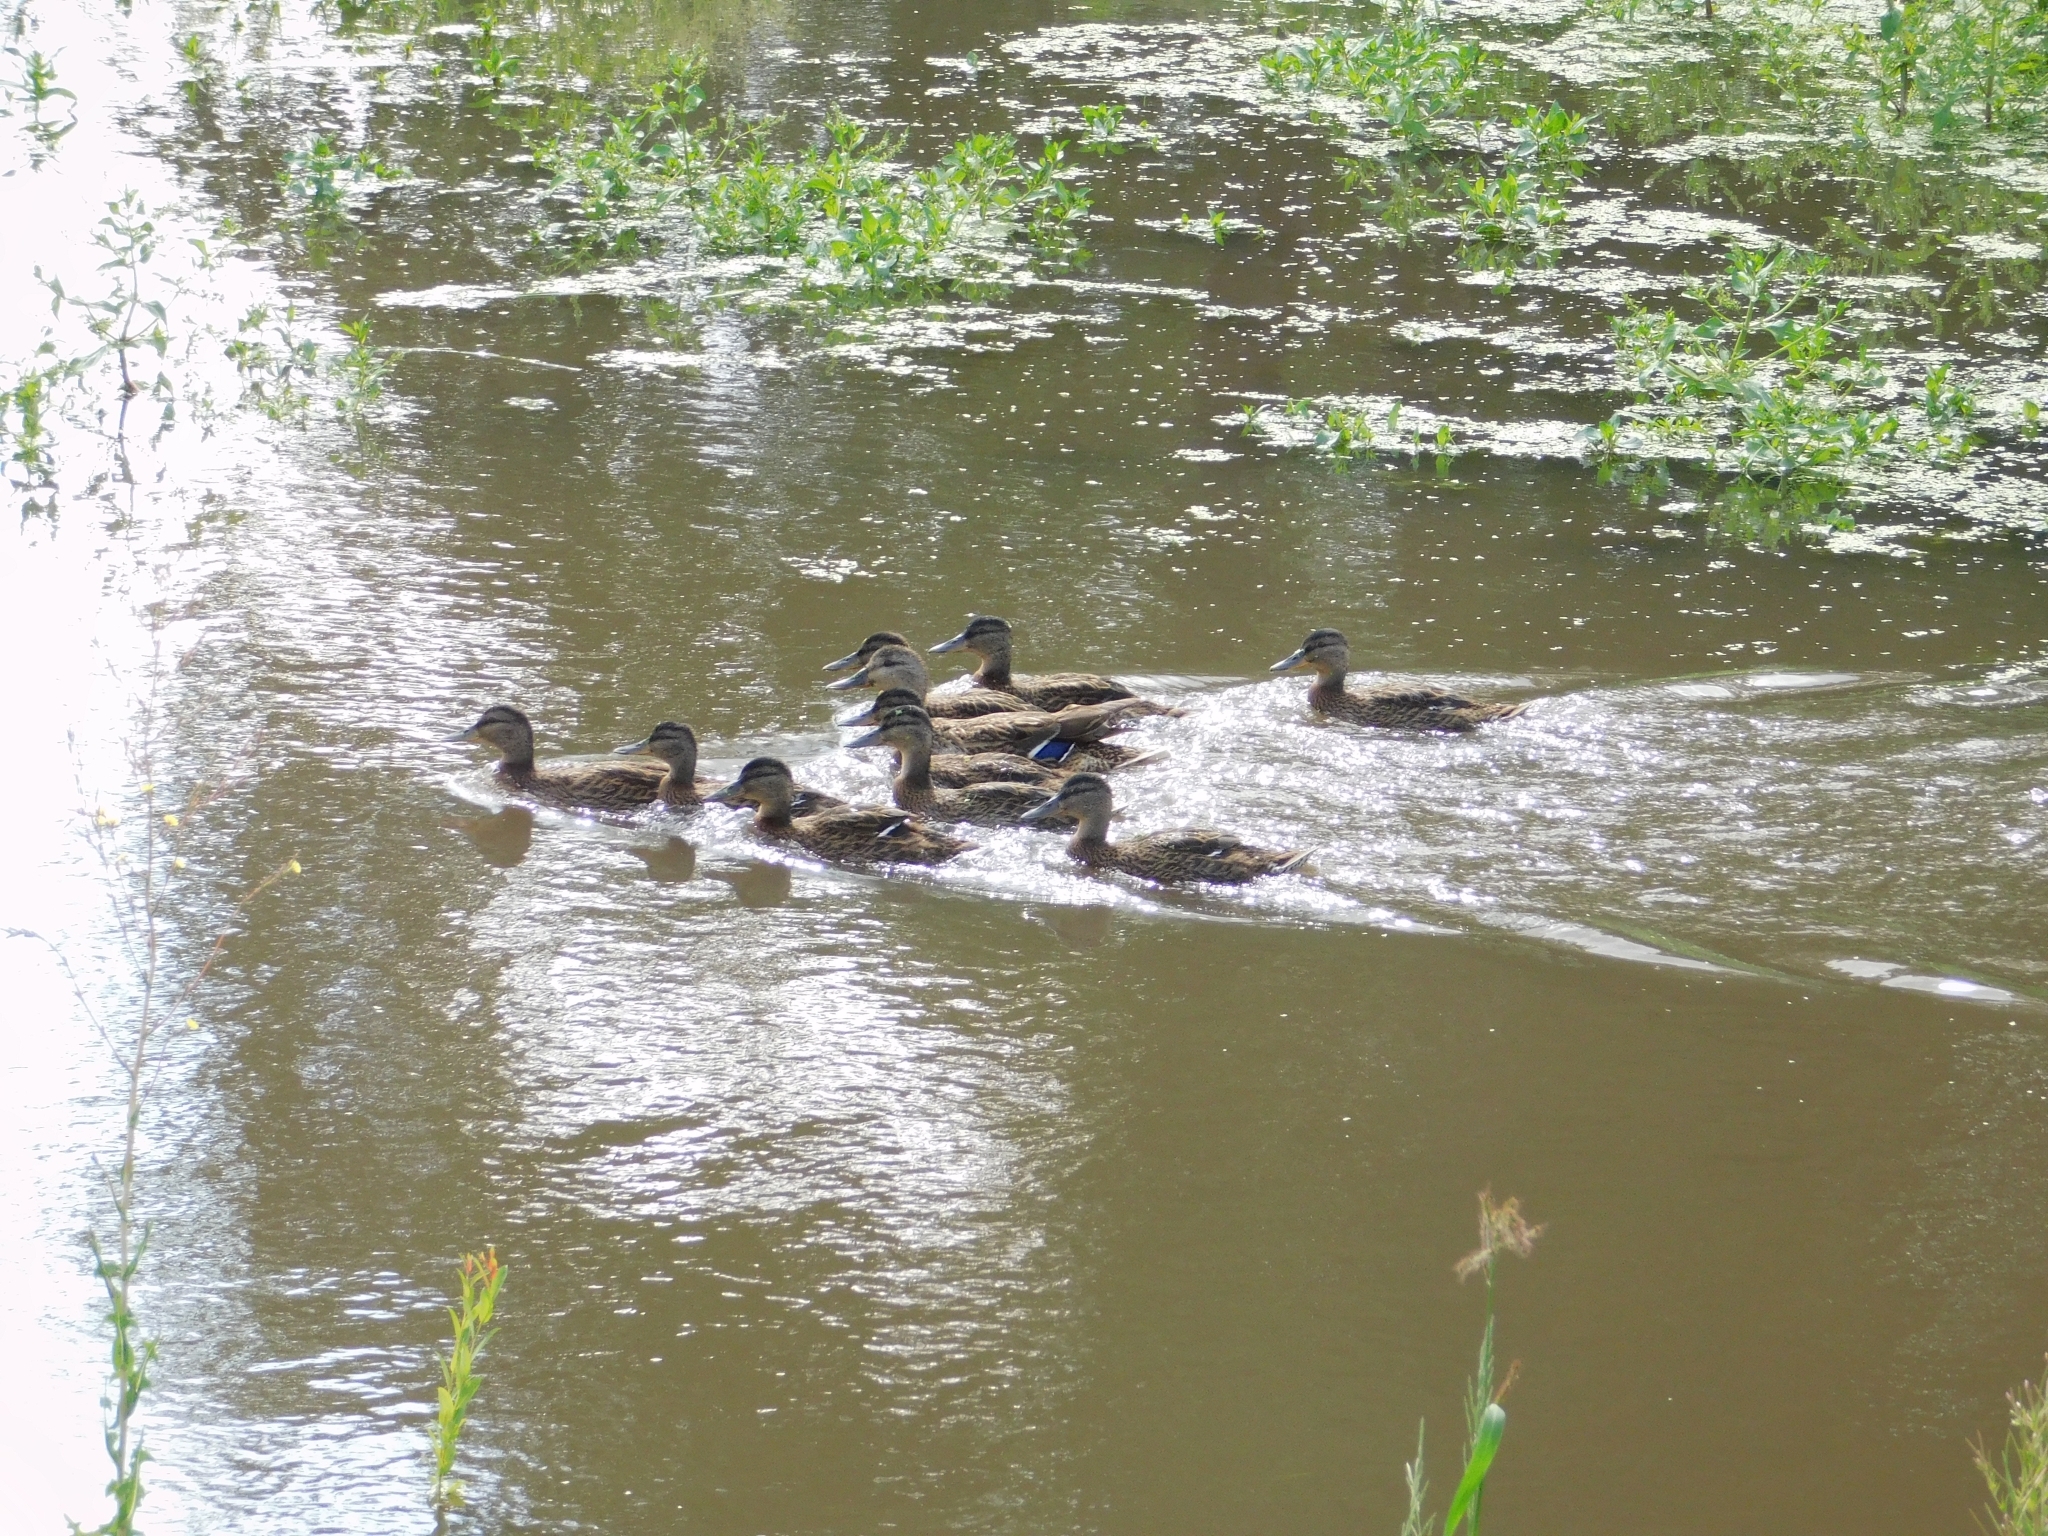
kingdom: Animalia
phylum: Chordata
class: Aves
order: Anseriformes
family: Anatidae
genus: Anas
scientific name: Anas platyrhynchos
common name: Mallard
